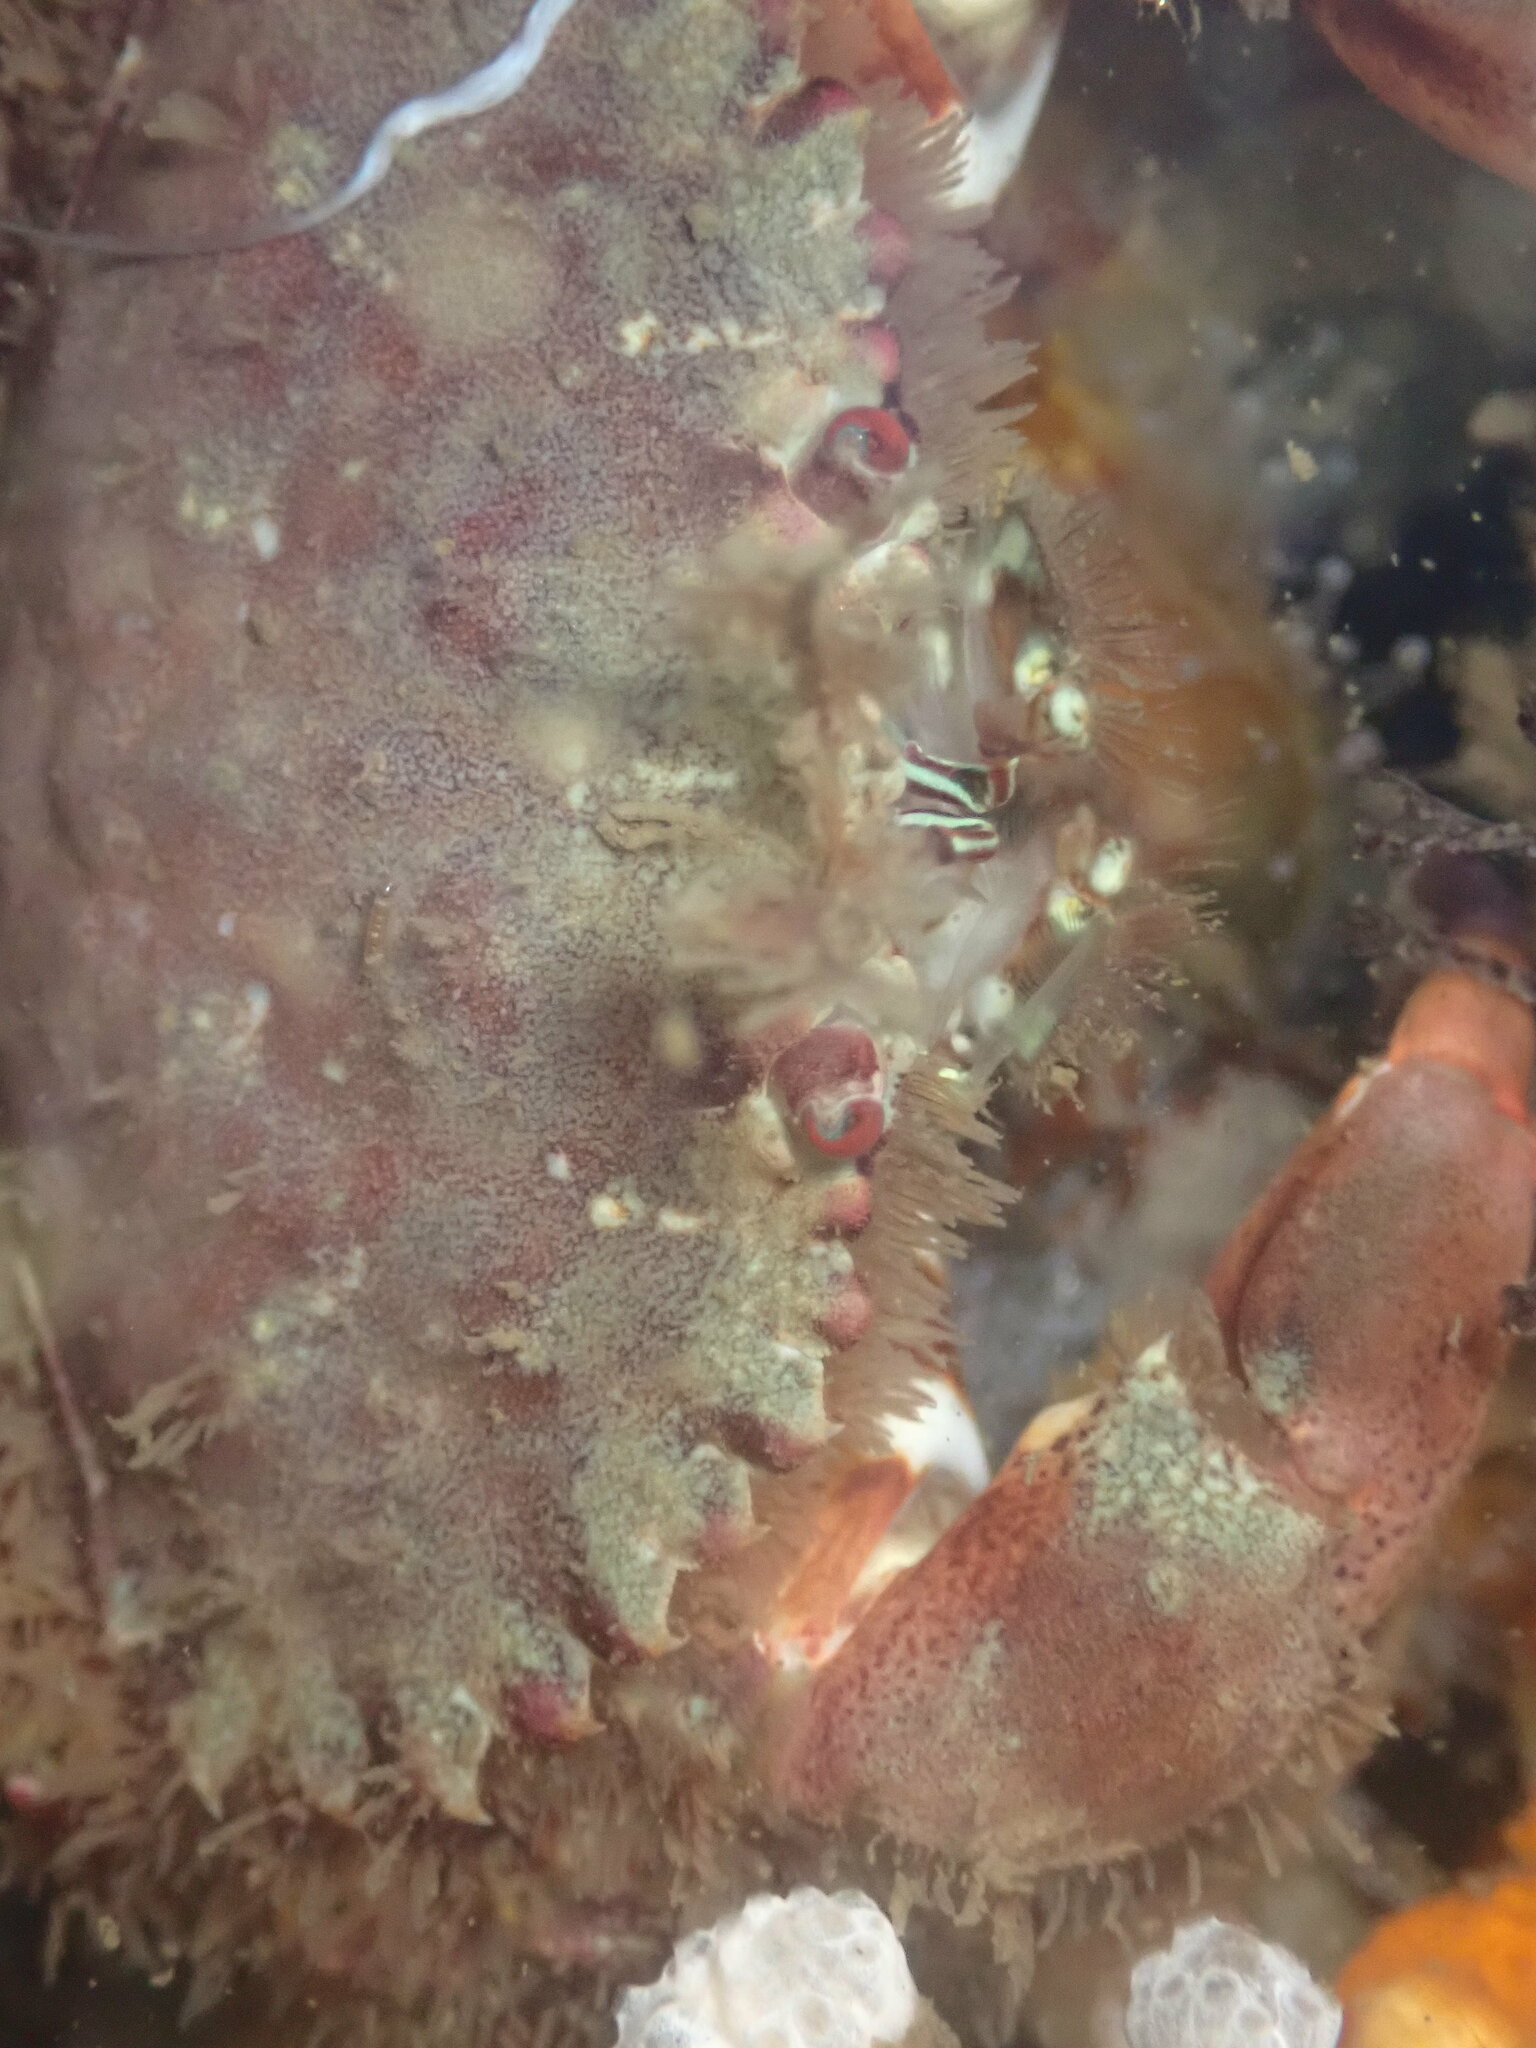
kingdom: Animalia
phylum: Arthropoda
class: Malacostraca
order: Decapoda
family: Cancridae
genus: Romaleon
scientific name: Romaleon antennarium
